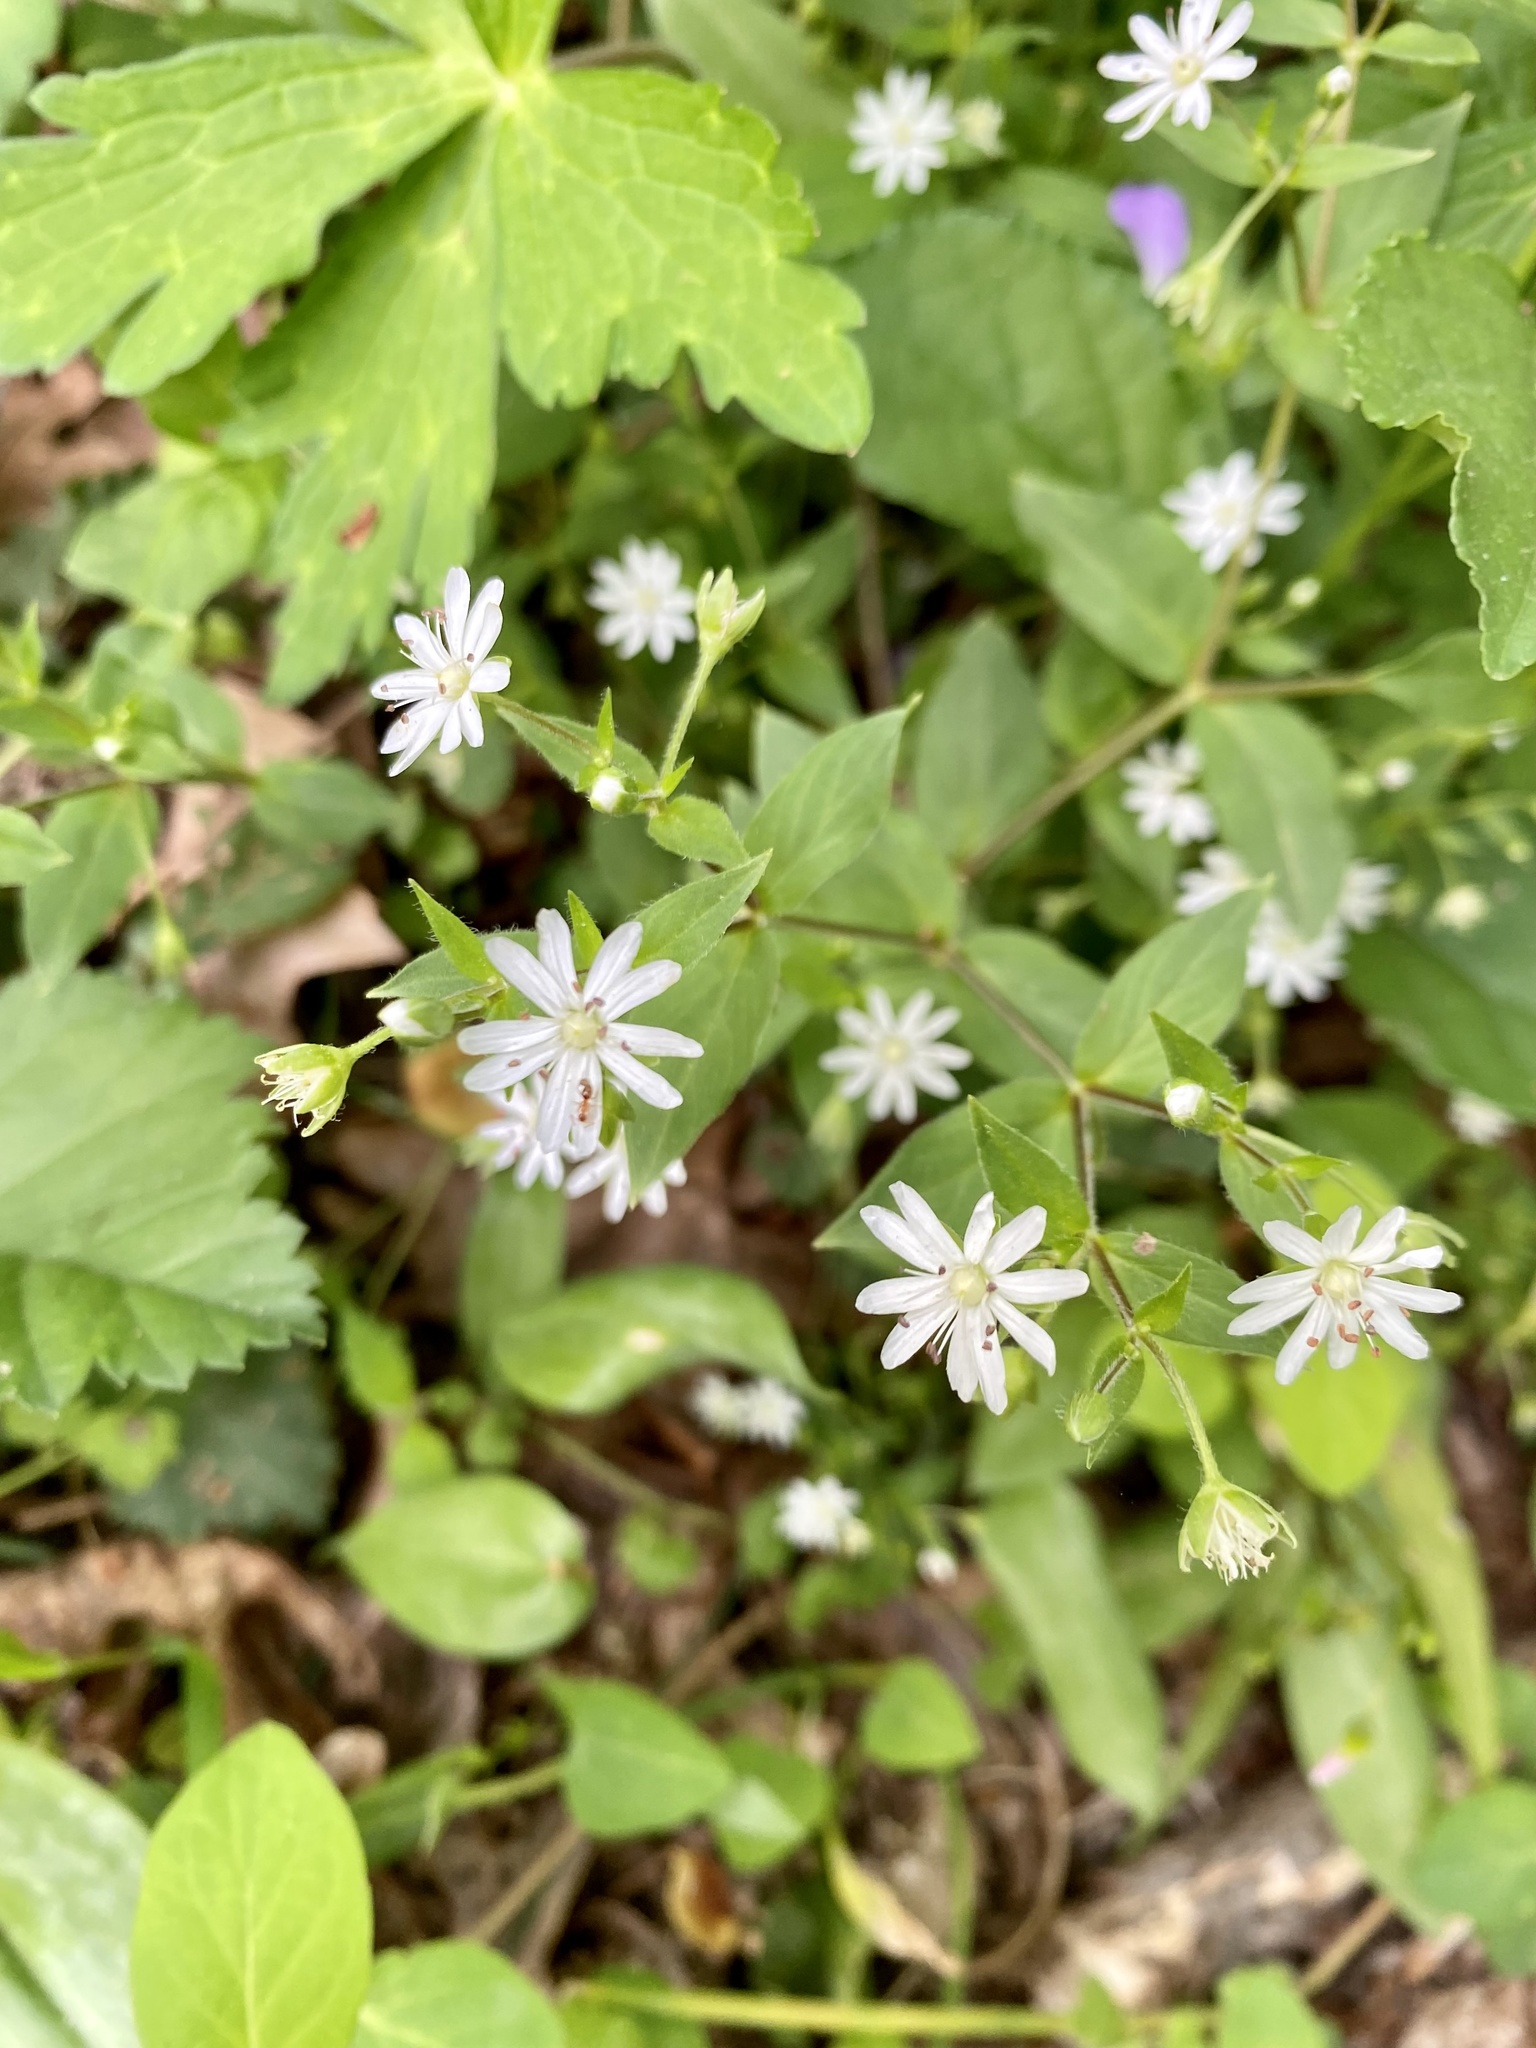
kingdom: Plantae
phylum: Tracheophyta
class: Magnoliopsida
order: Caryophyllales
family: Caryophyllaceae
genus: Stellaria
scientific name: Stellaria pubera
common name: Star chickweed
